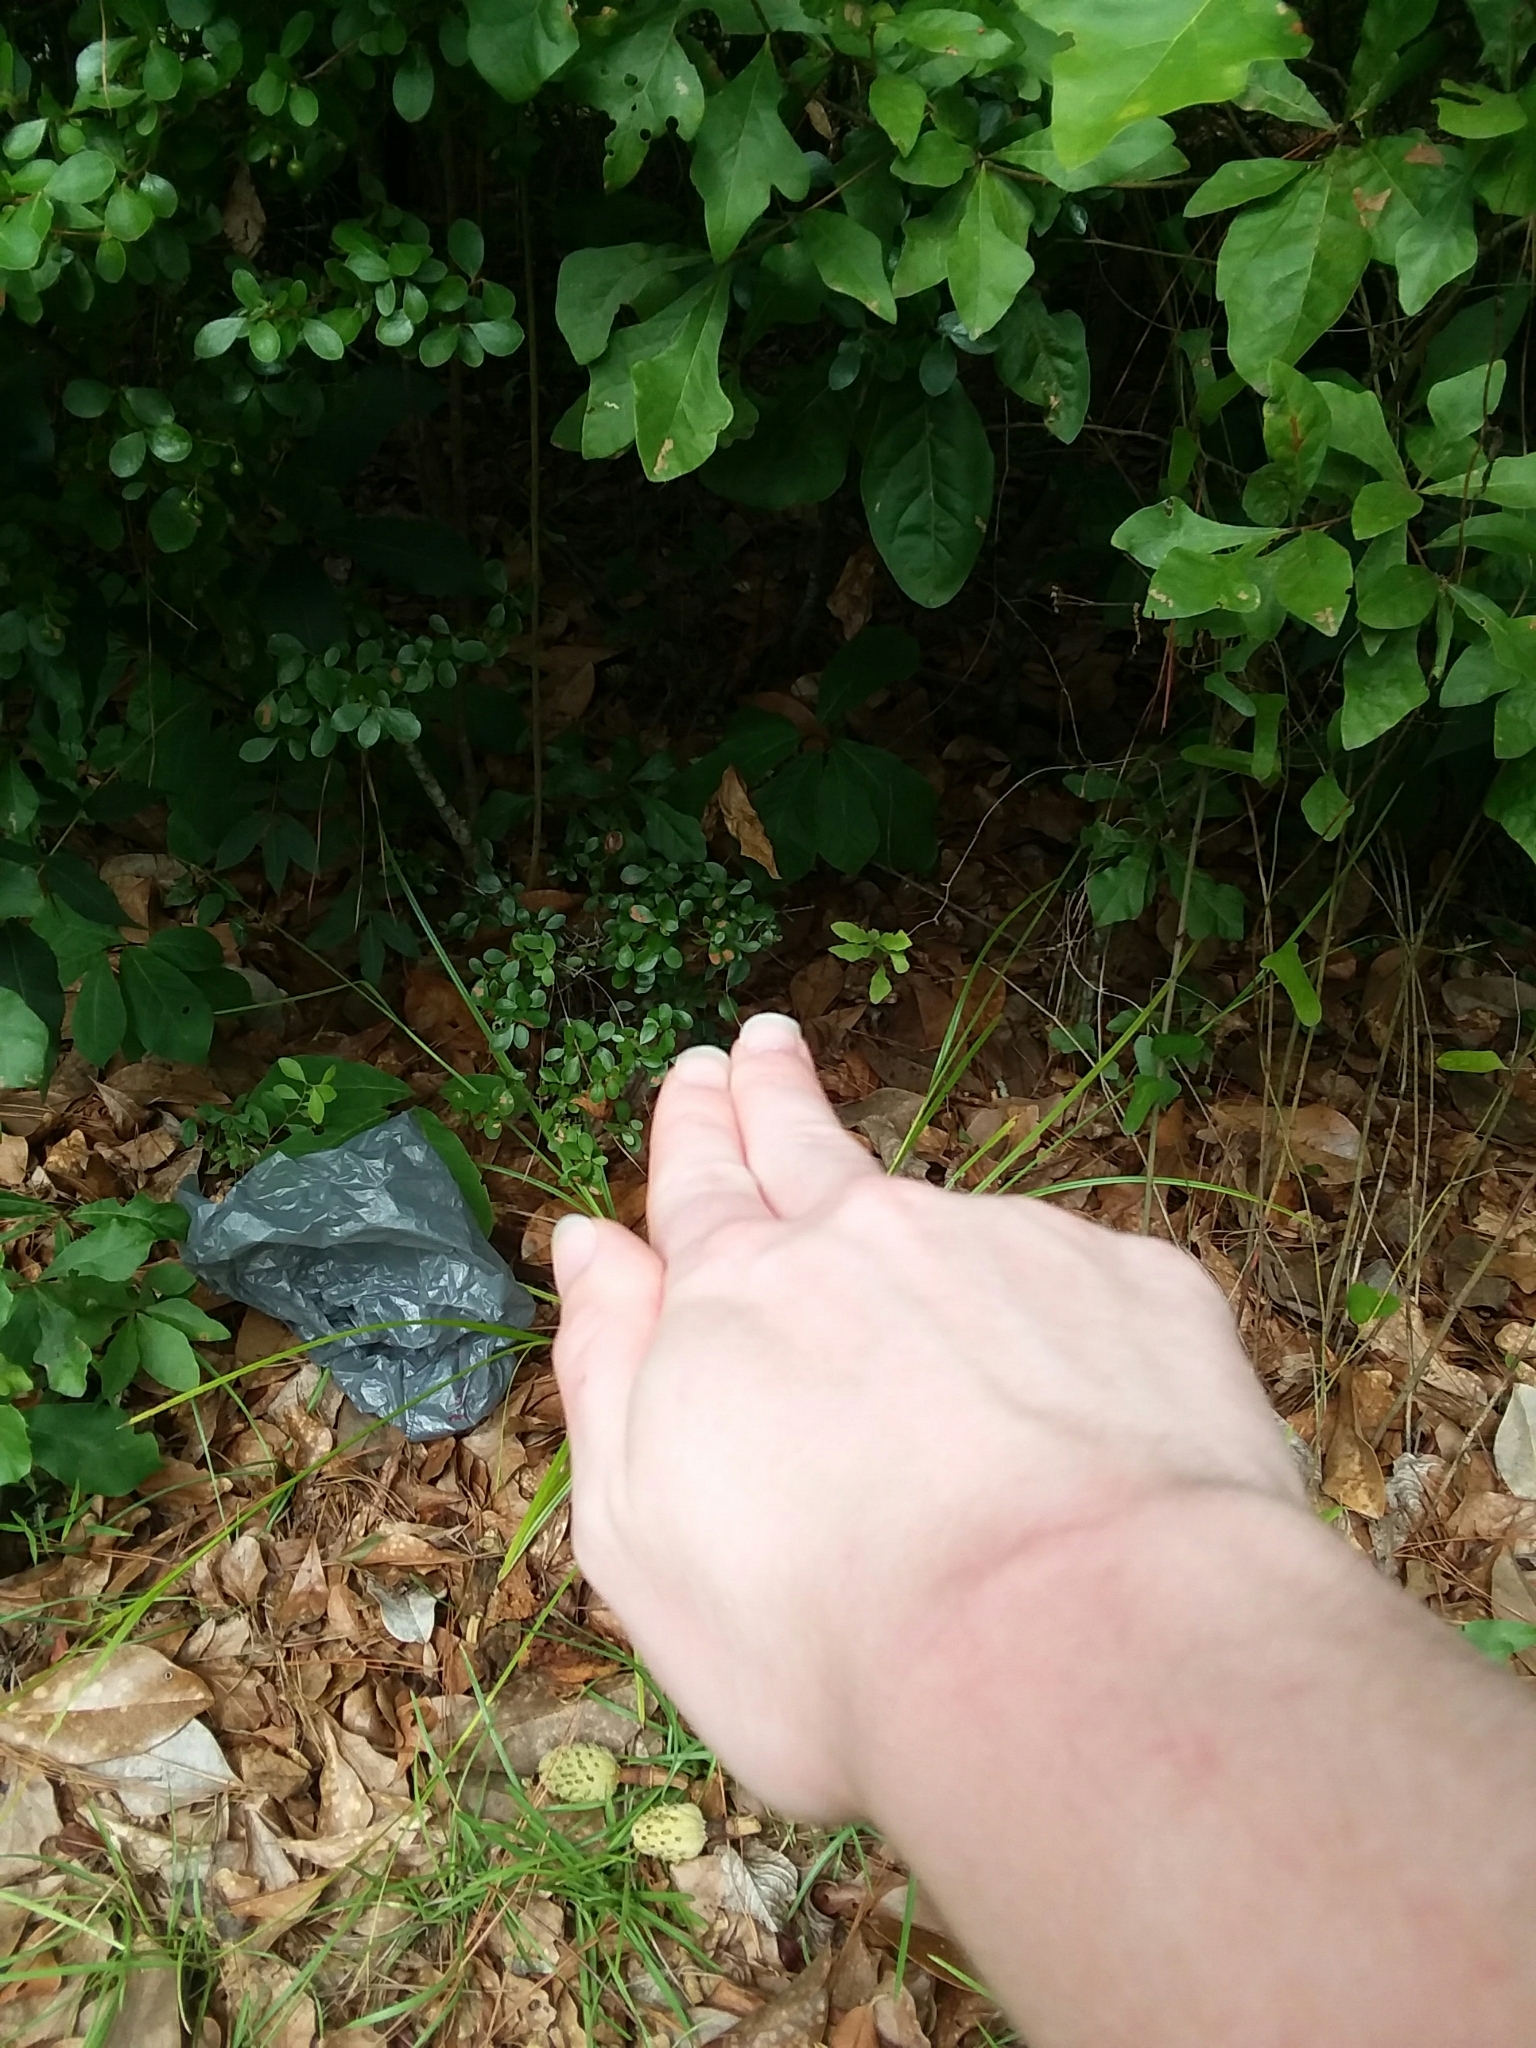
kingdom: Plantae
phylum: Tracheophyta
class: Magnoliopsida
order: Magnoliales
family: Annonaceae
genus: Asimina
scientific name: Asimina parviflora
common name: Dwarf pawpaw
